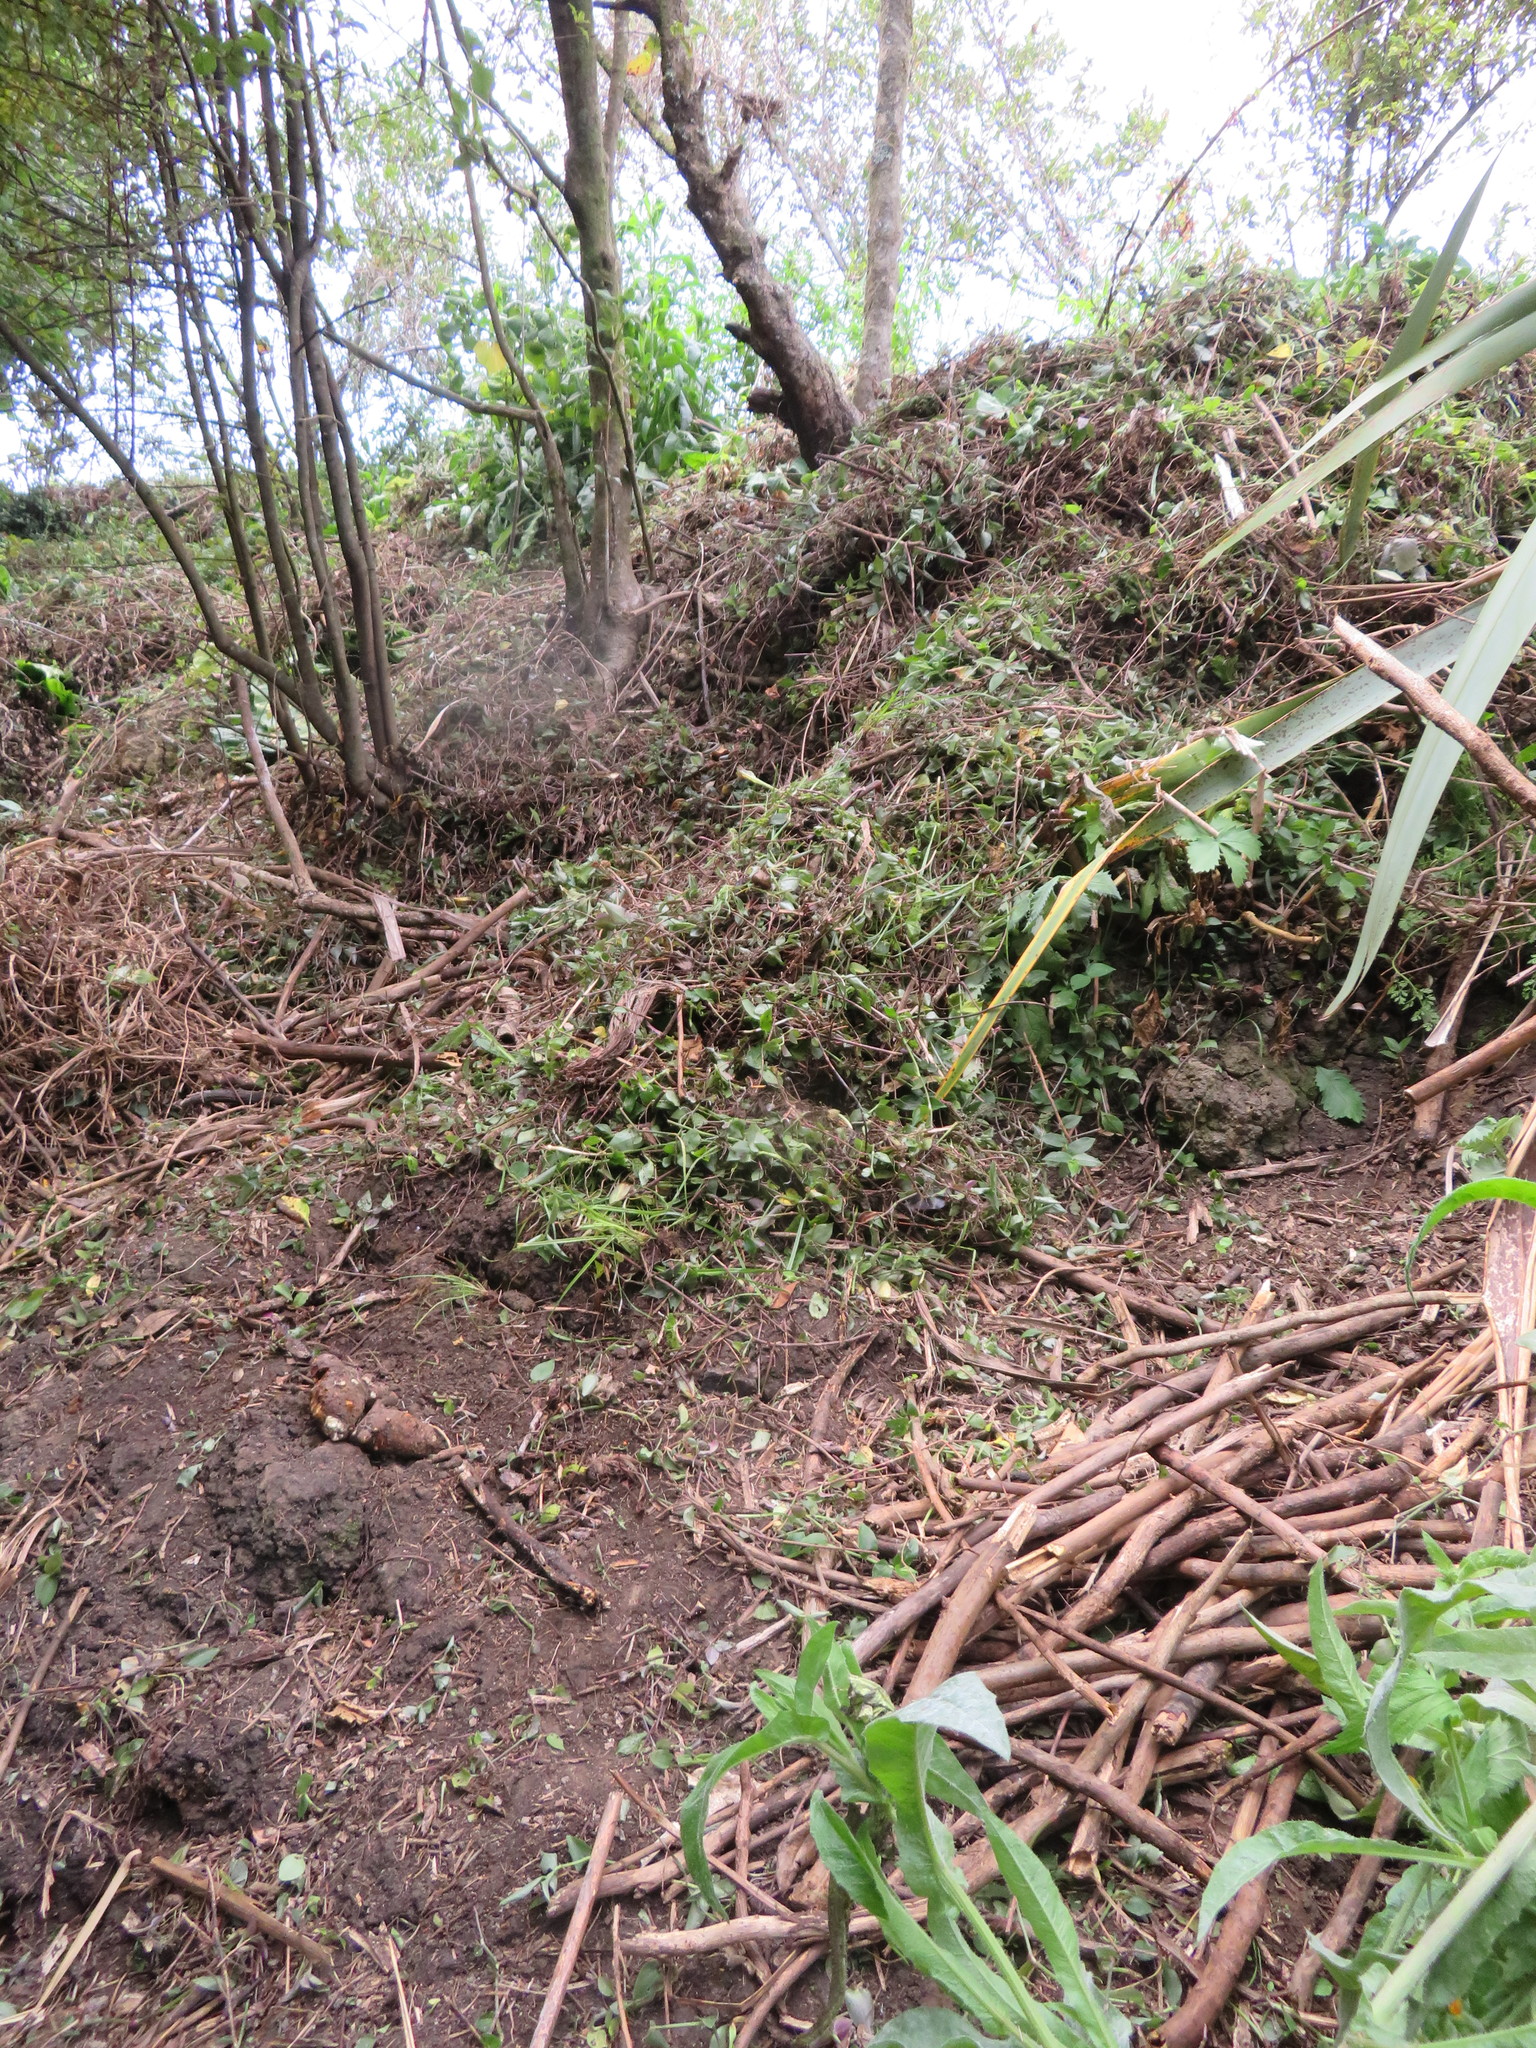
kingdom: Plantae
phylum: Tracheophyta
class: Liliopsida
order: Commelinales
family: Commelinaceae
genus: Tradescantia
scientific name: Tradescantia fluminensis
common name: Wandering-jew
